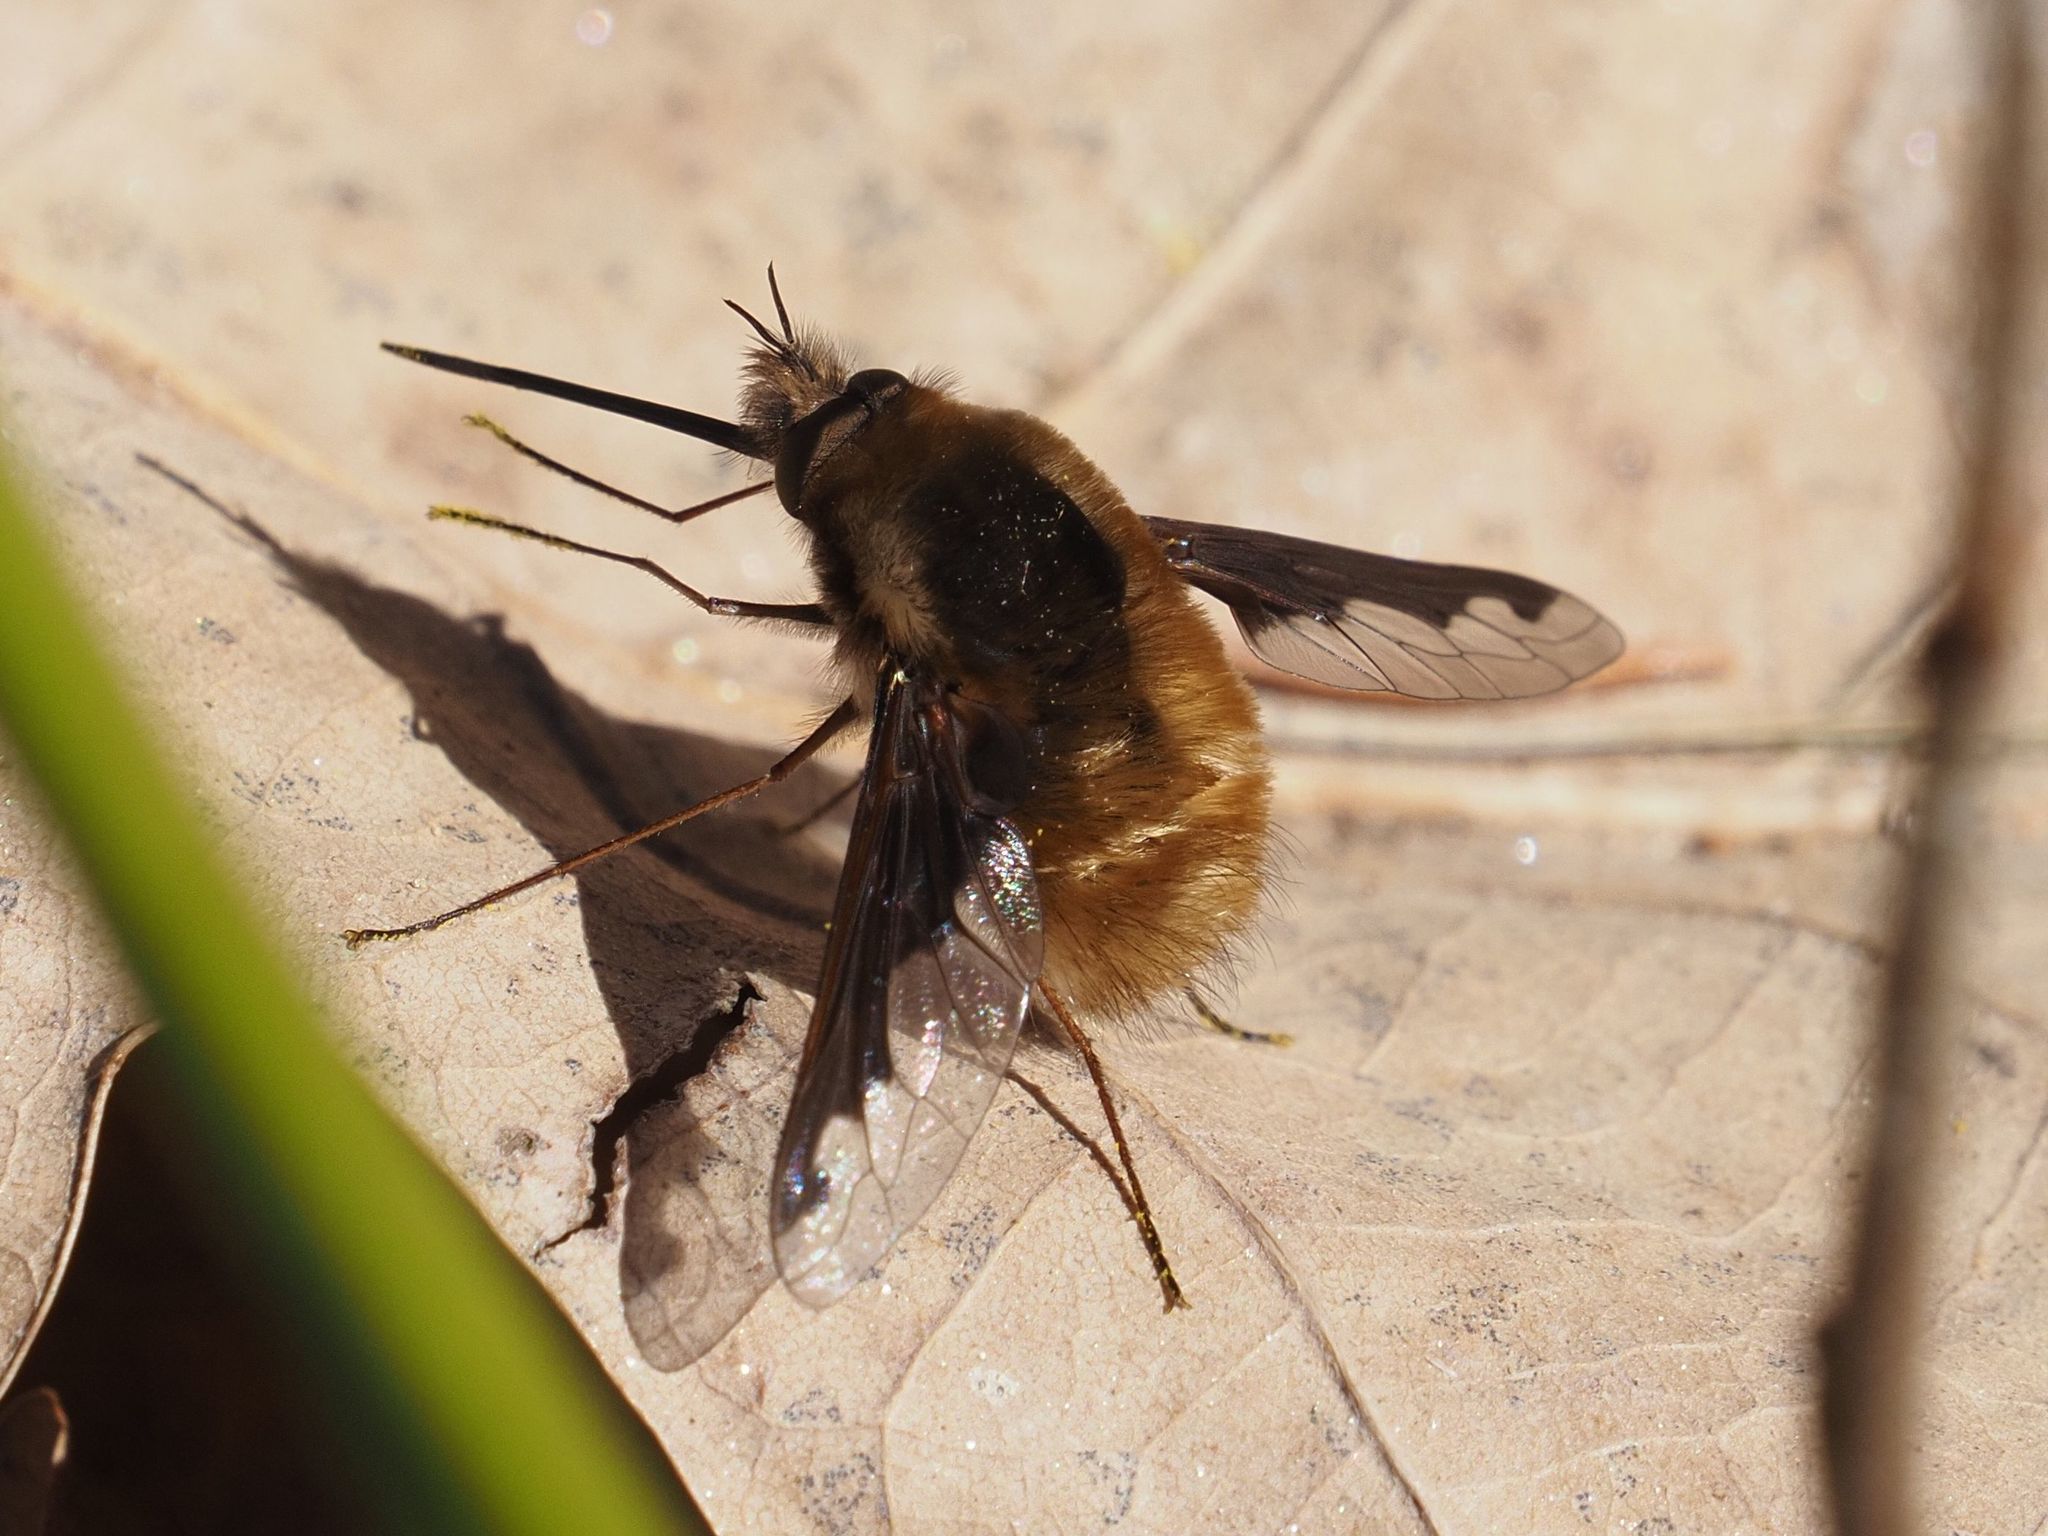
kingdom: Animalia
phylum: Arthropoda
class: Insecta
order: Diptera
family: Bombyliidae
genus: Bombylius
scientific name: Bombylius major
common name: Bee fly
